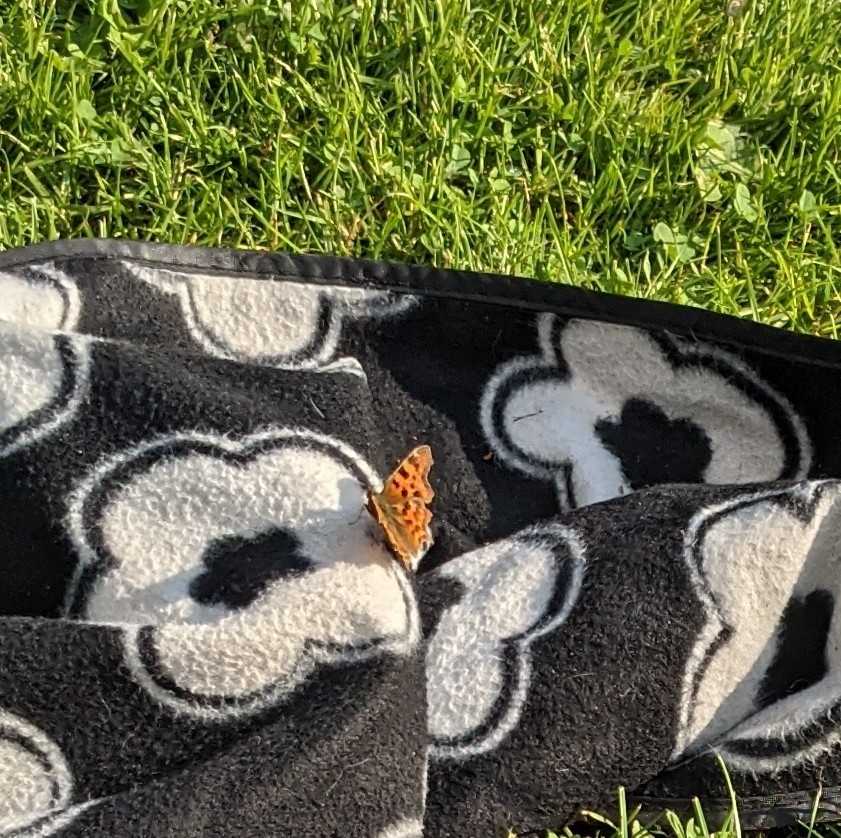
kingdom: Animalia
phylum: Arthropoda
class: Insecta
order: Lepidoptera
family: Nymphalidae
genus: Polygonia
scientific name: Polygonia c-album
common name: Comma
